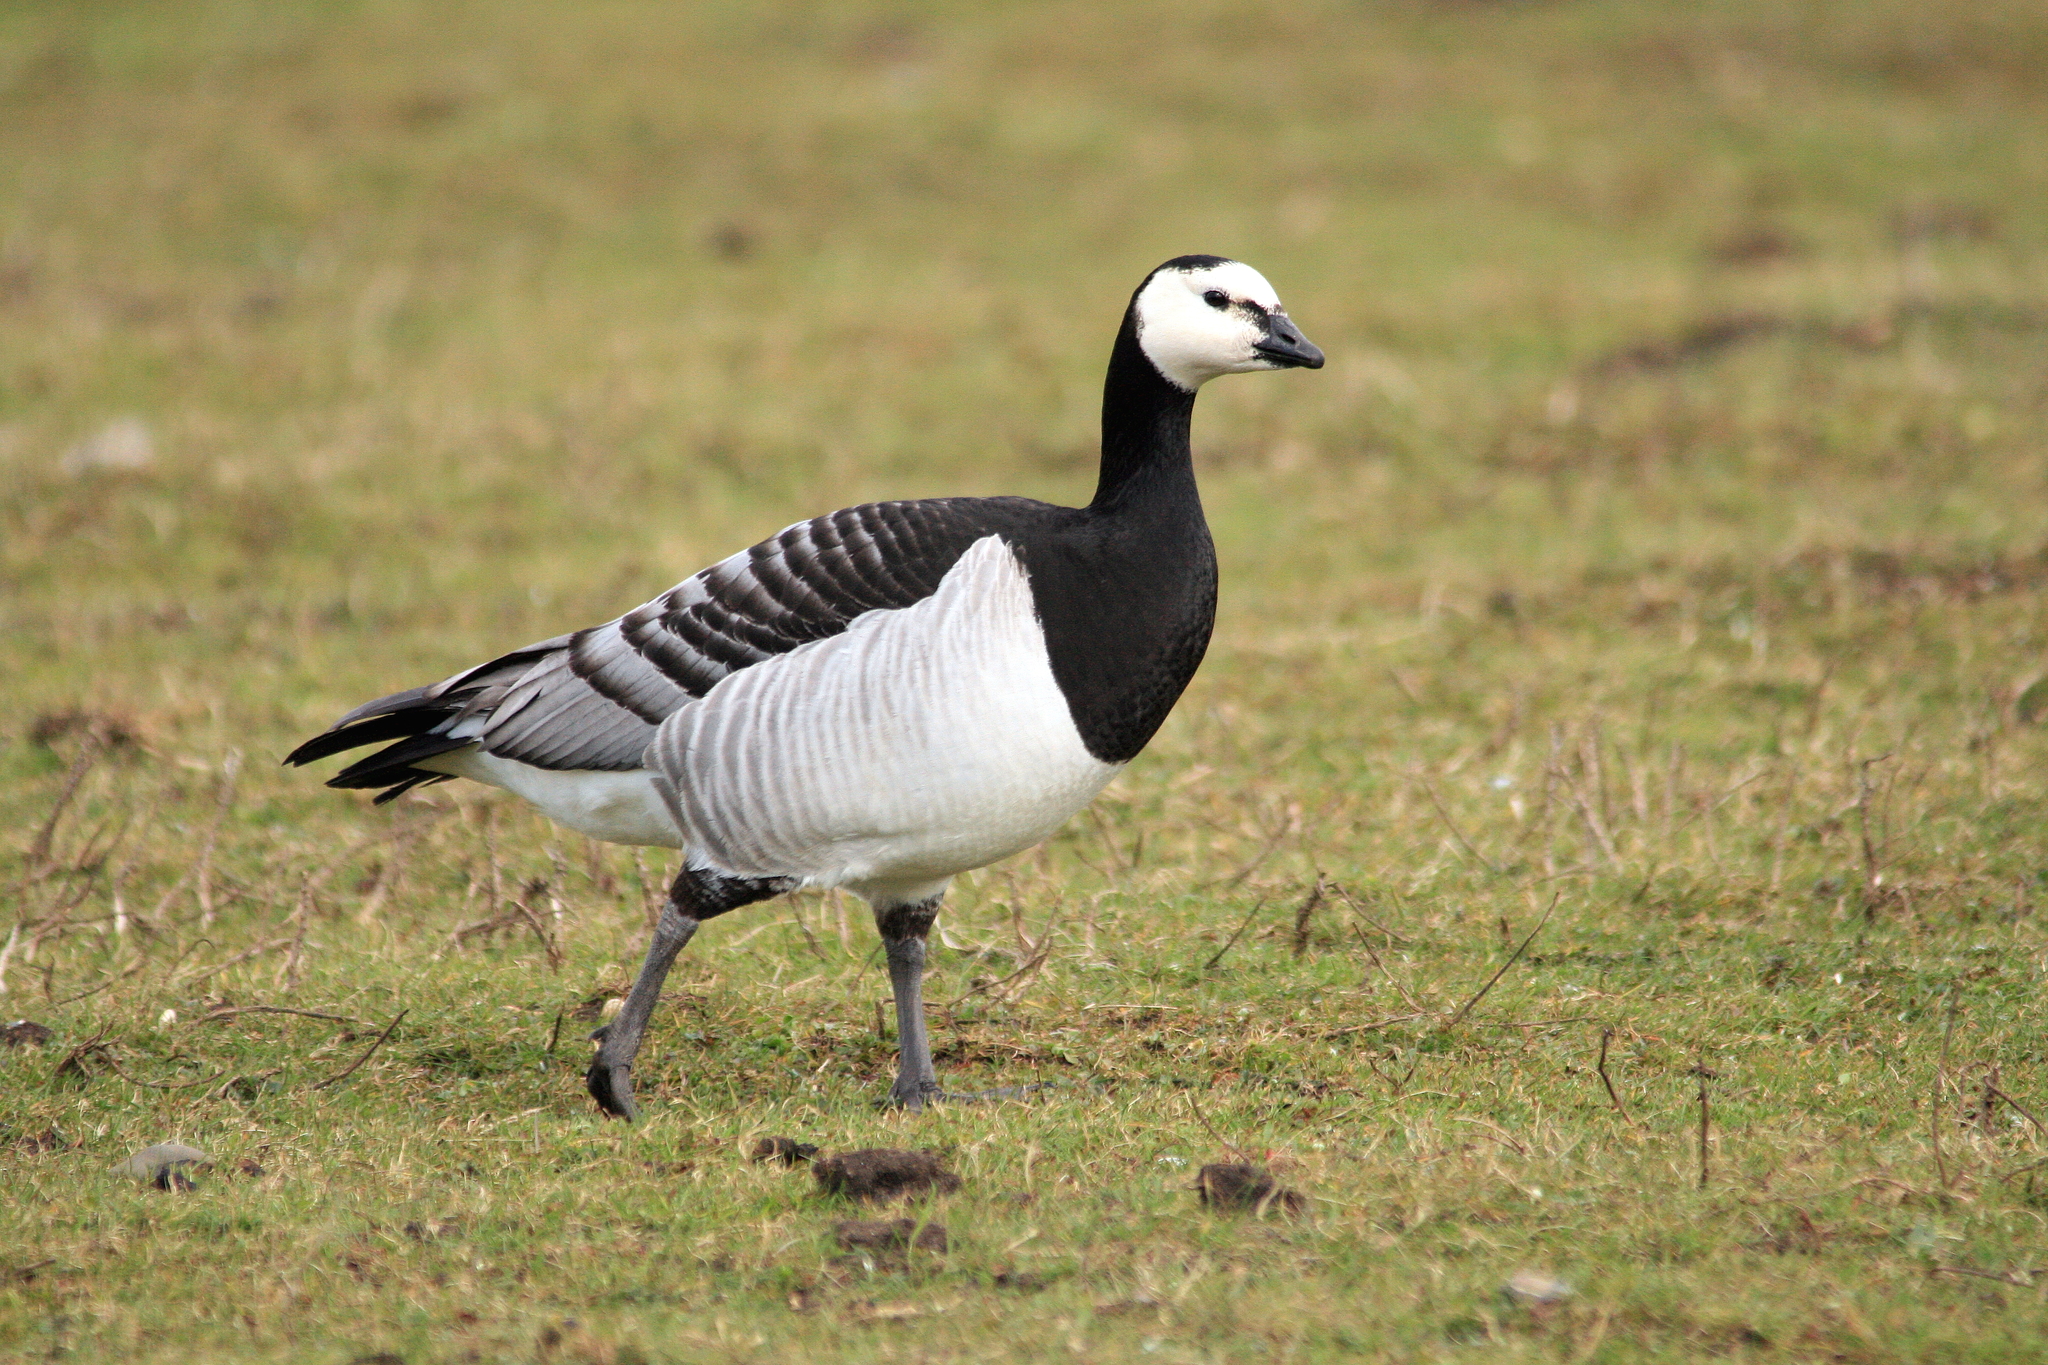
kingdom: Animalia
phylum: Chordata
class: Aves
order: Anseriformes
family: Anatidae
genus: Branta
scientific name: Branta leucopsis
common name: Barnacle goose
